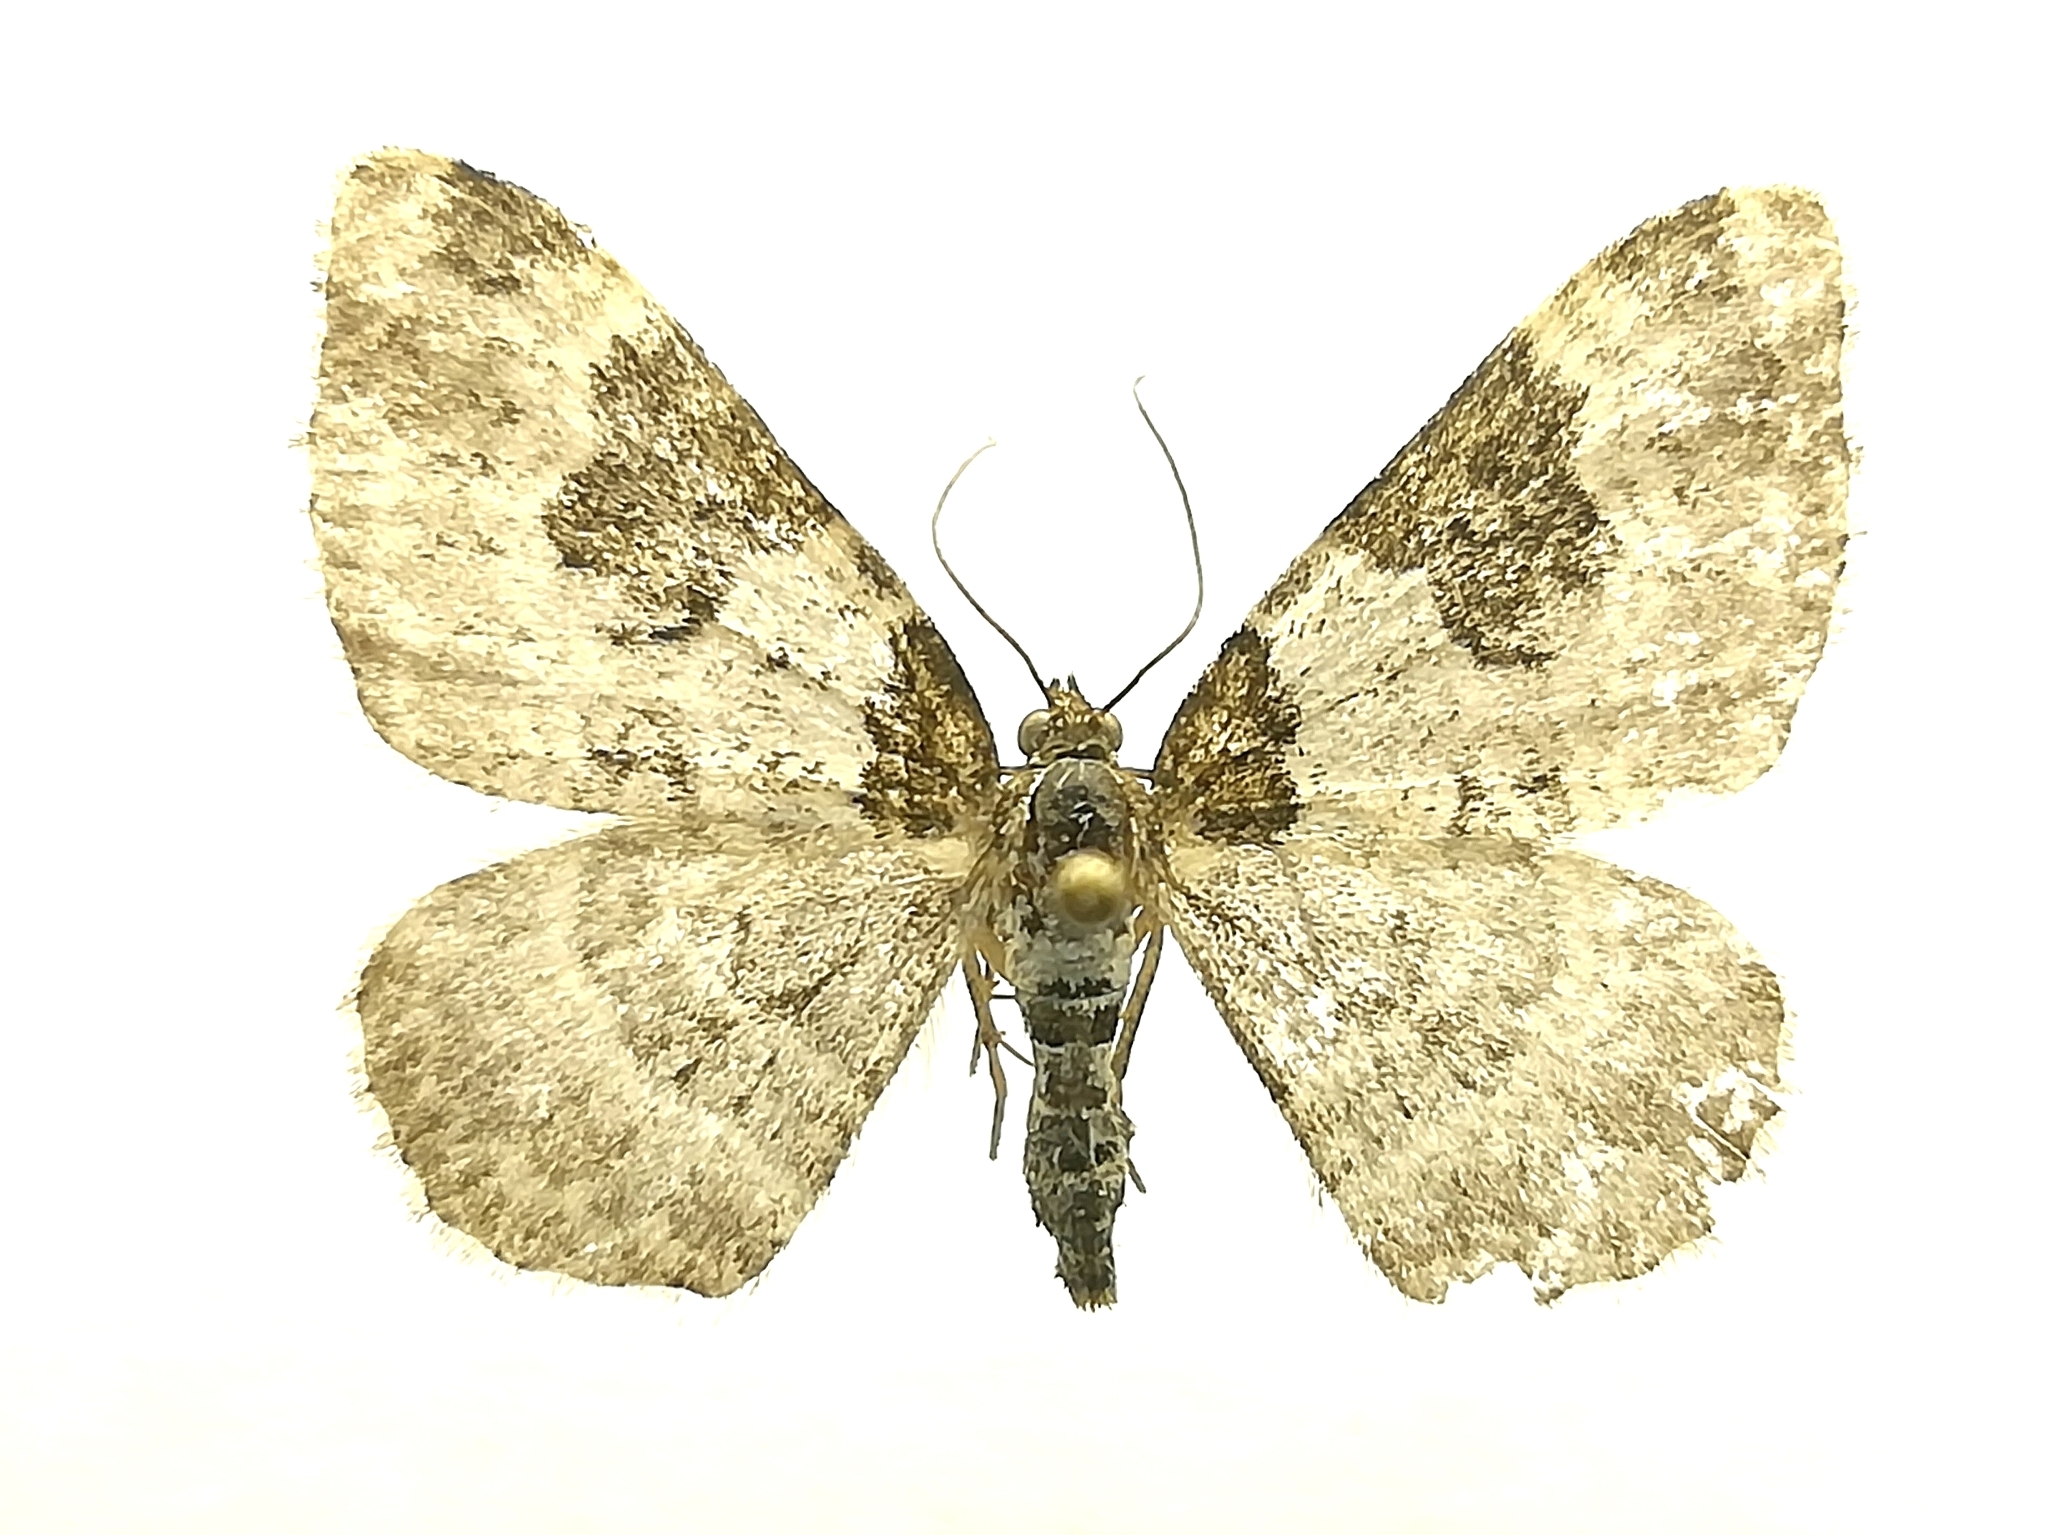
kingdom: Animalia
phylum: Arthropoda
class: Insecta
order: Lepidoptera
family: Geometridae
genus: Xanthorhoe
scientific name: Xanthorhoe fluctuata
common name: Garden carpet
